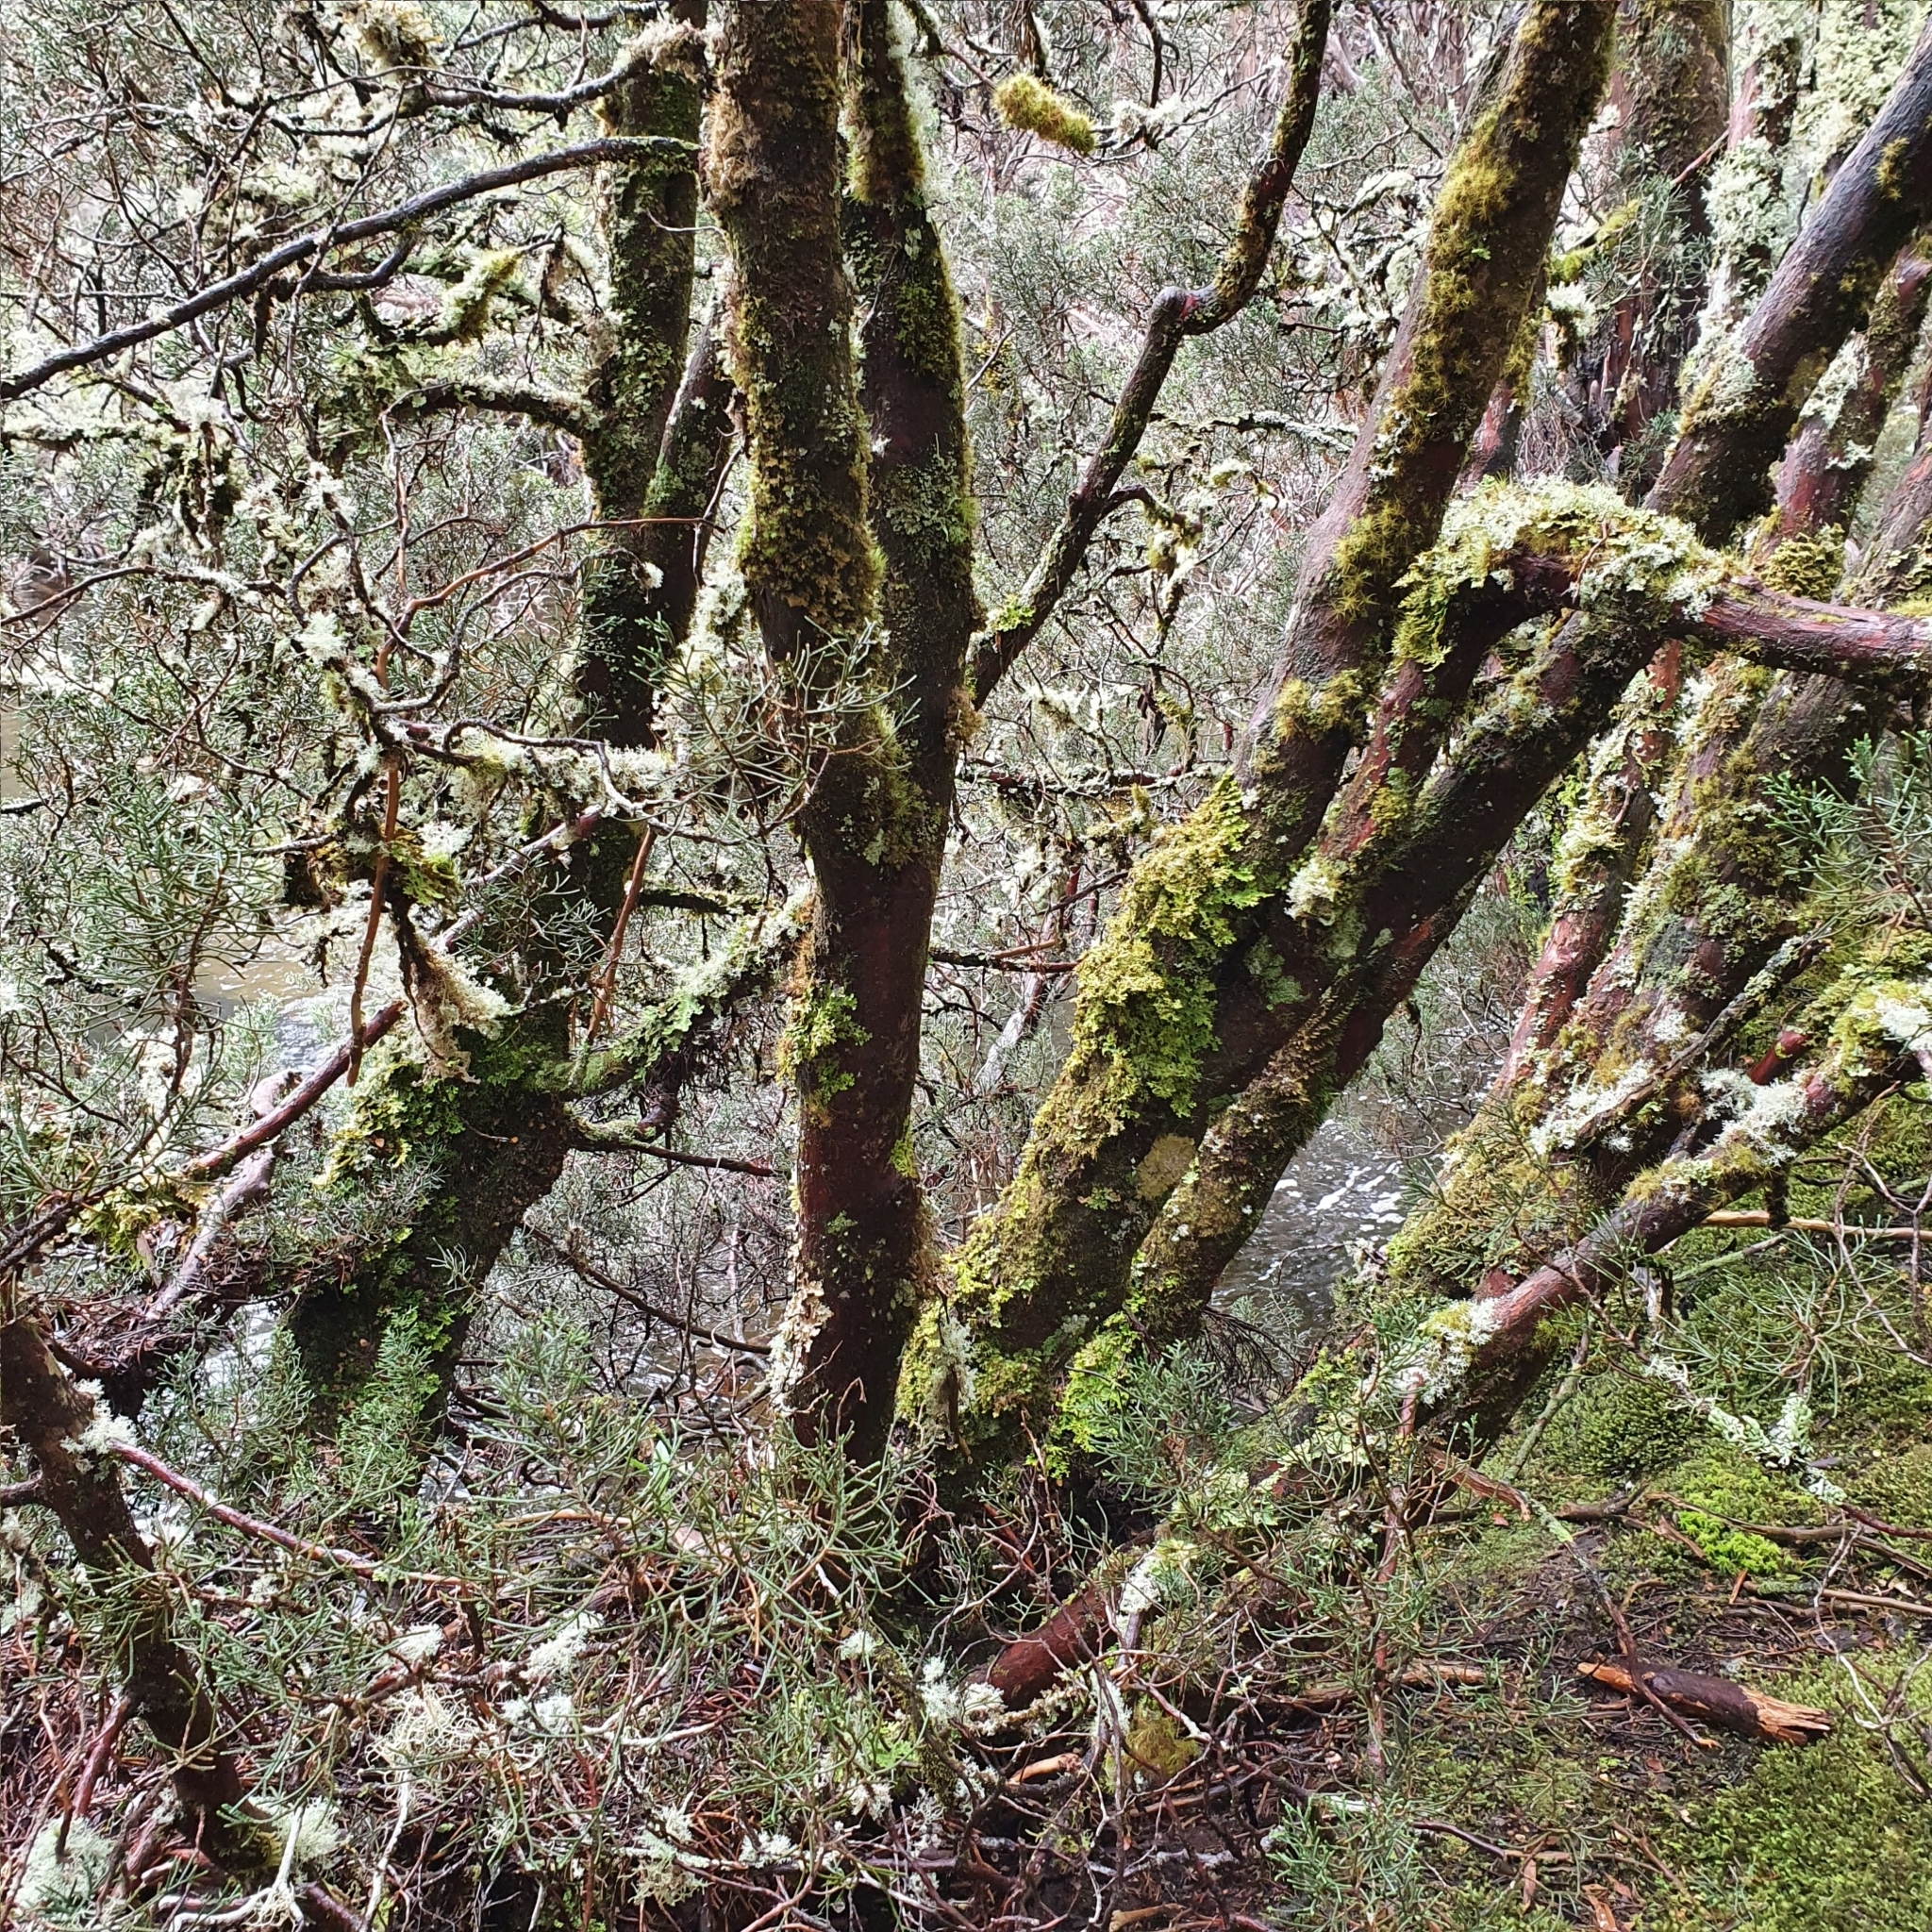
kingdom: Plantae
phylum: Tracheophyta
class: Pinopsida
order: Pinales
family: Cupressaceae
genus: Diselma
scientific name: Diselma archeri
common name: Cheshunt pine
